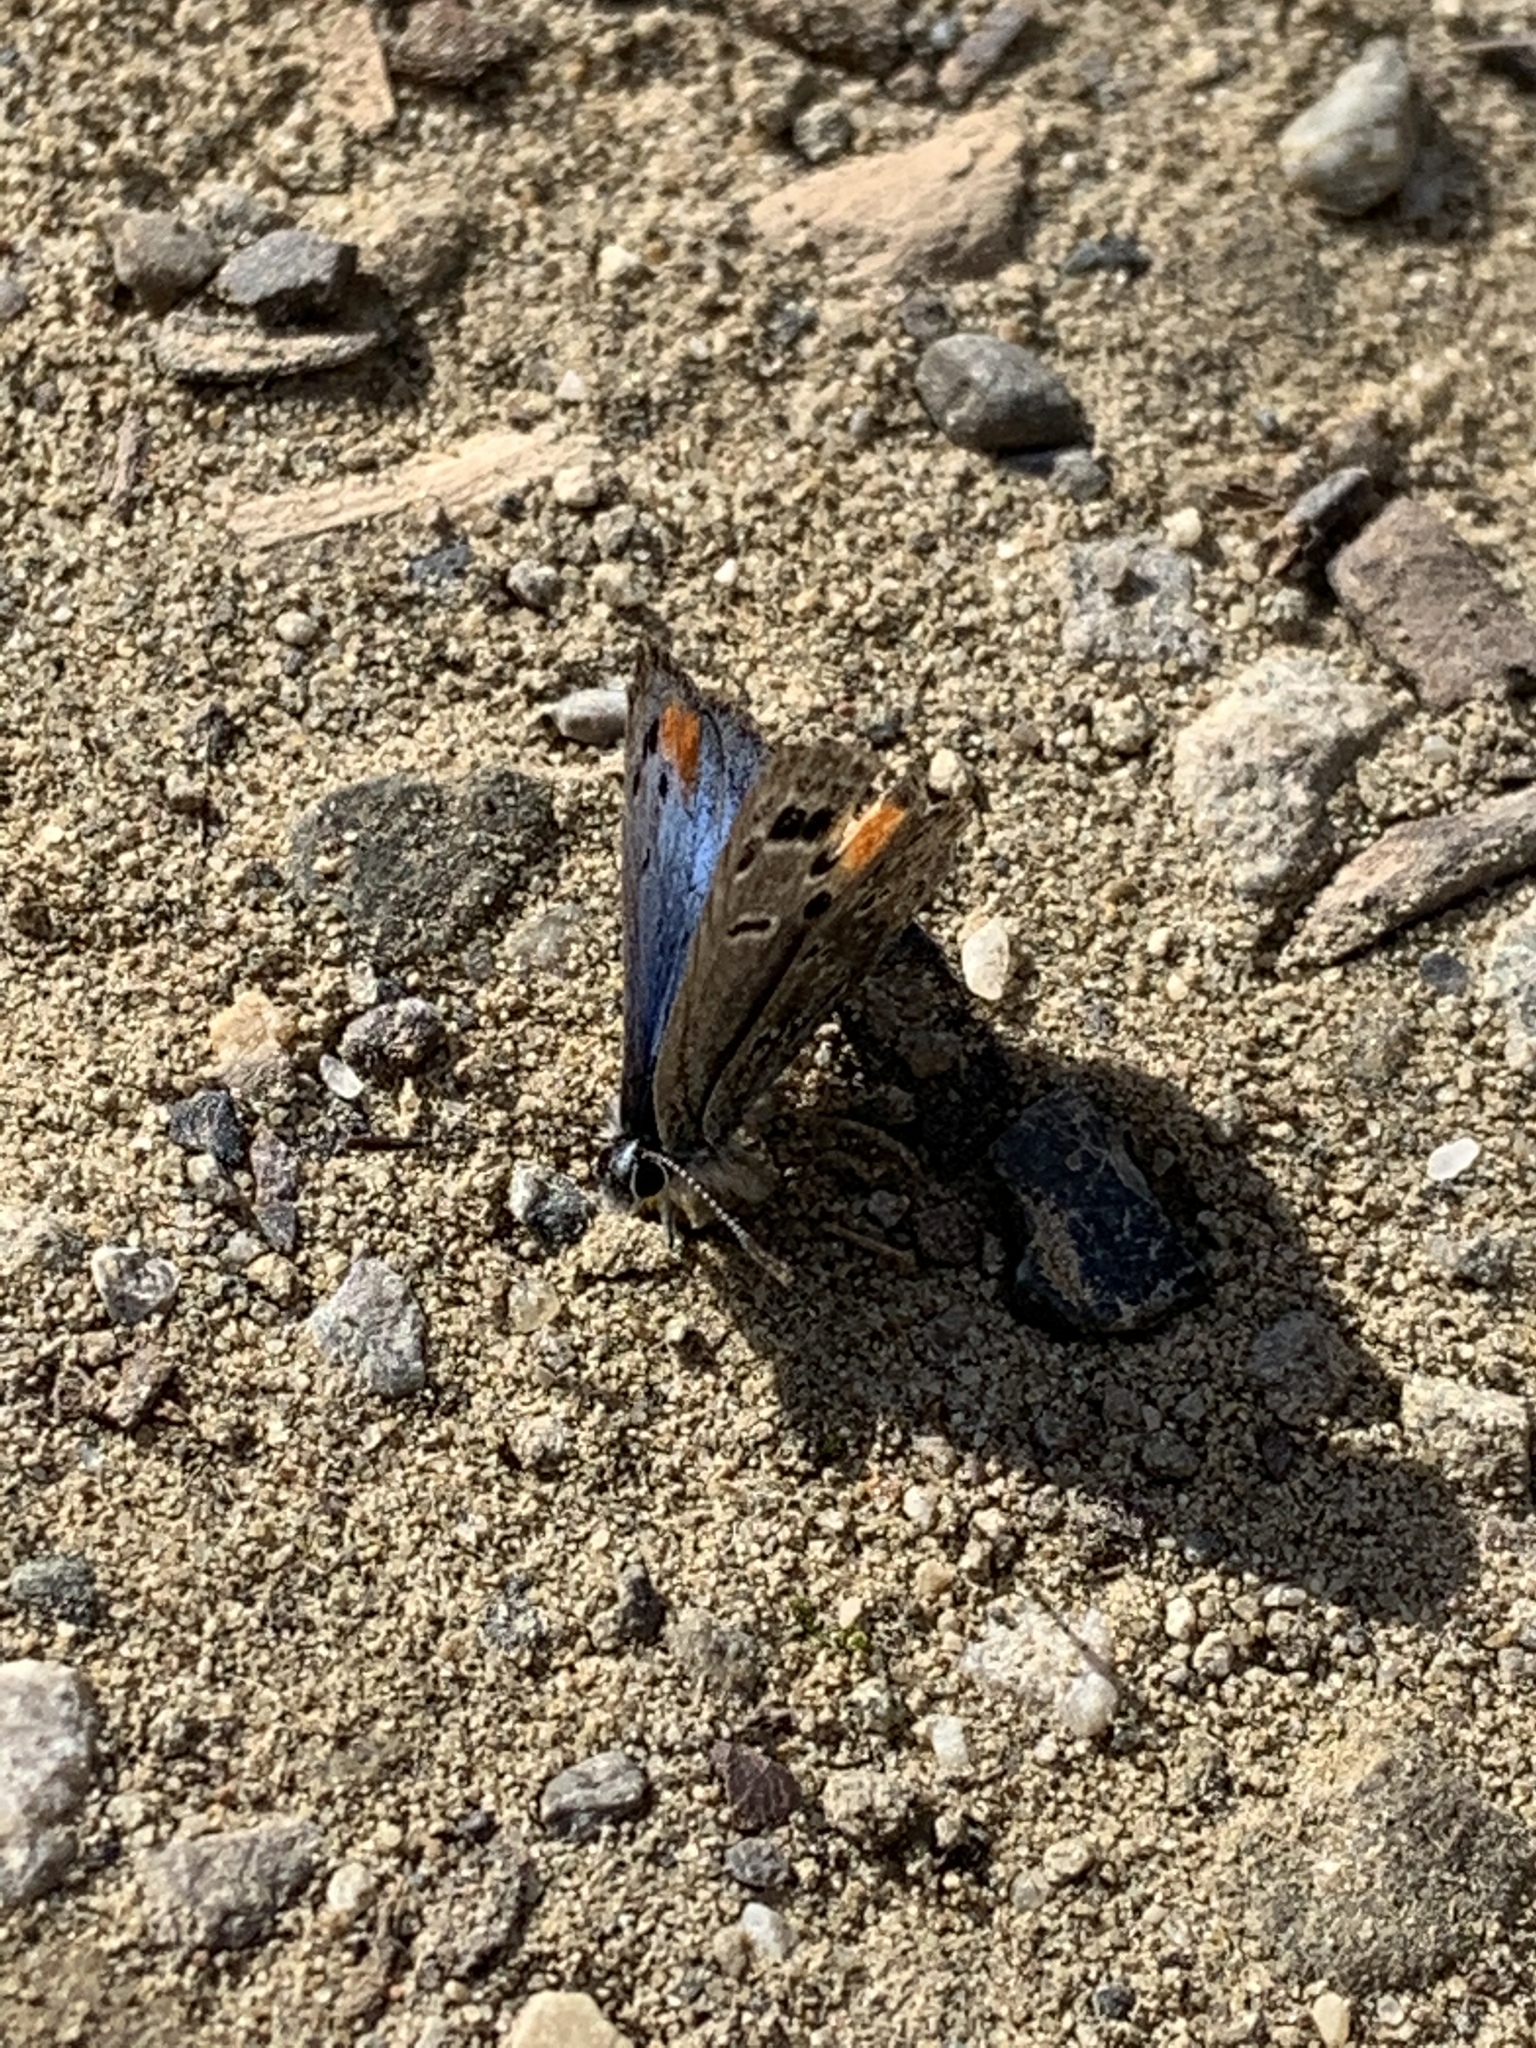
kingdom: Animalia
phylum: Arthropoda
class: Insecta
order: Lepidoptera
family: Lycaenidae
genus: Philotes
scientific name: Philotes sonorensis
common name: Sonoran blue
